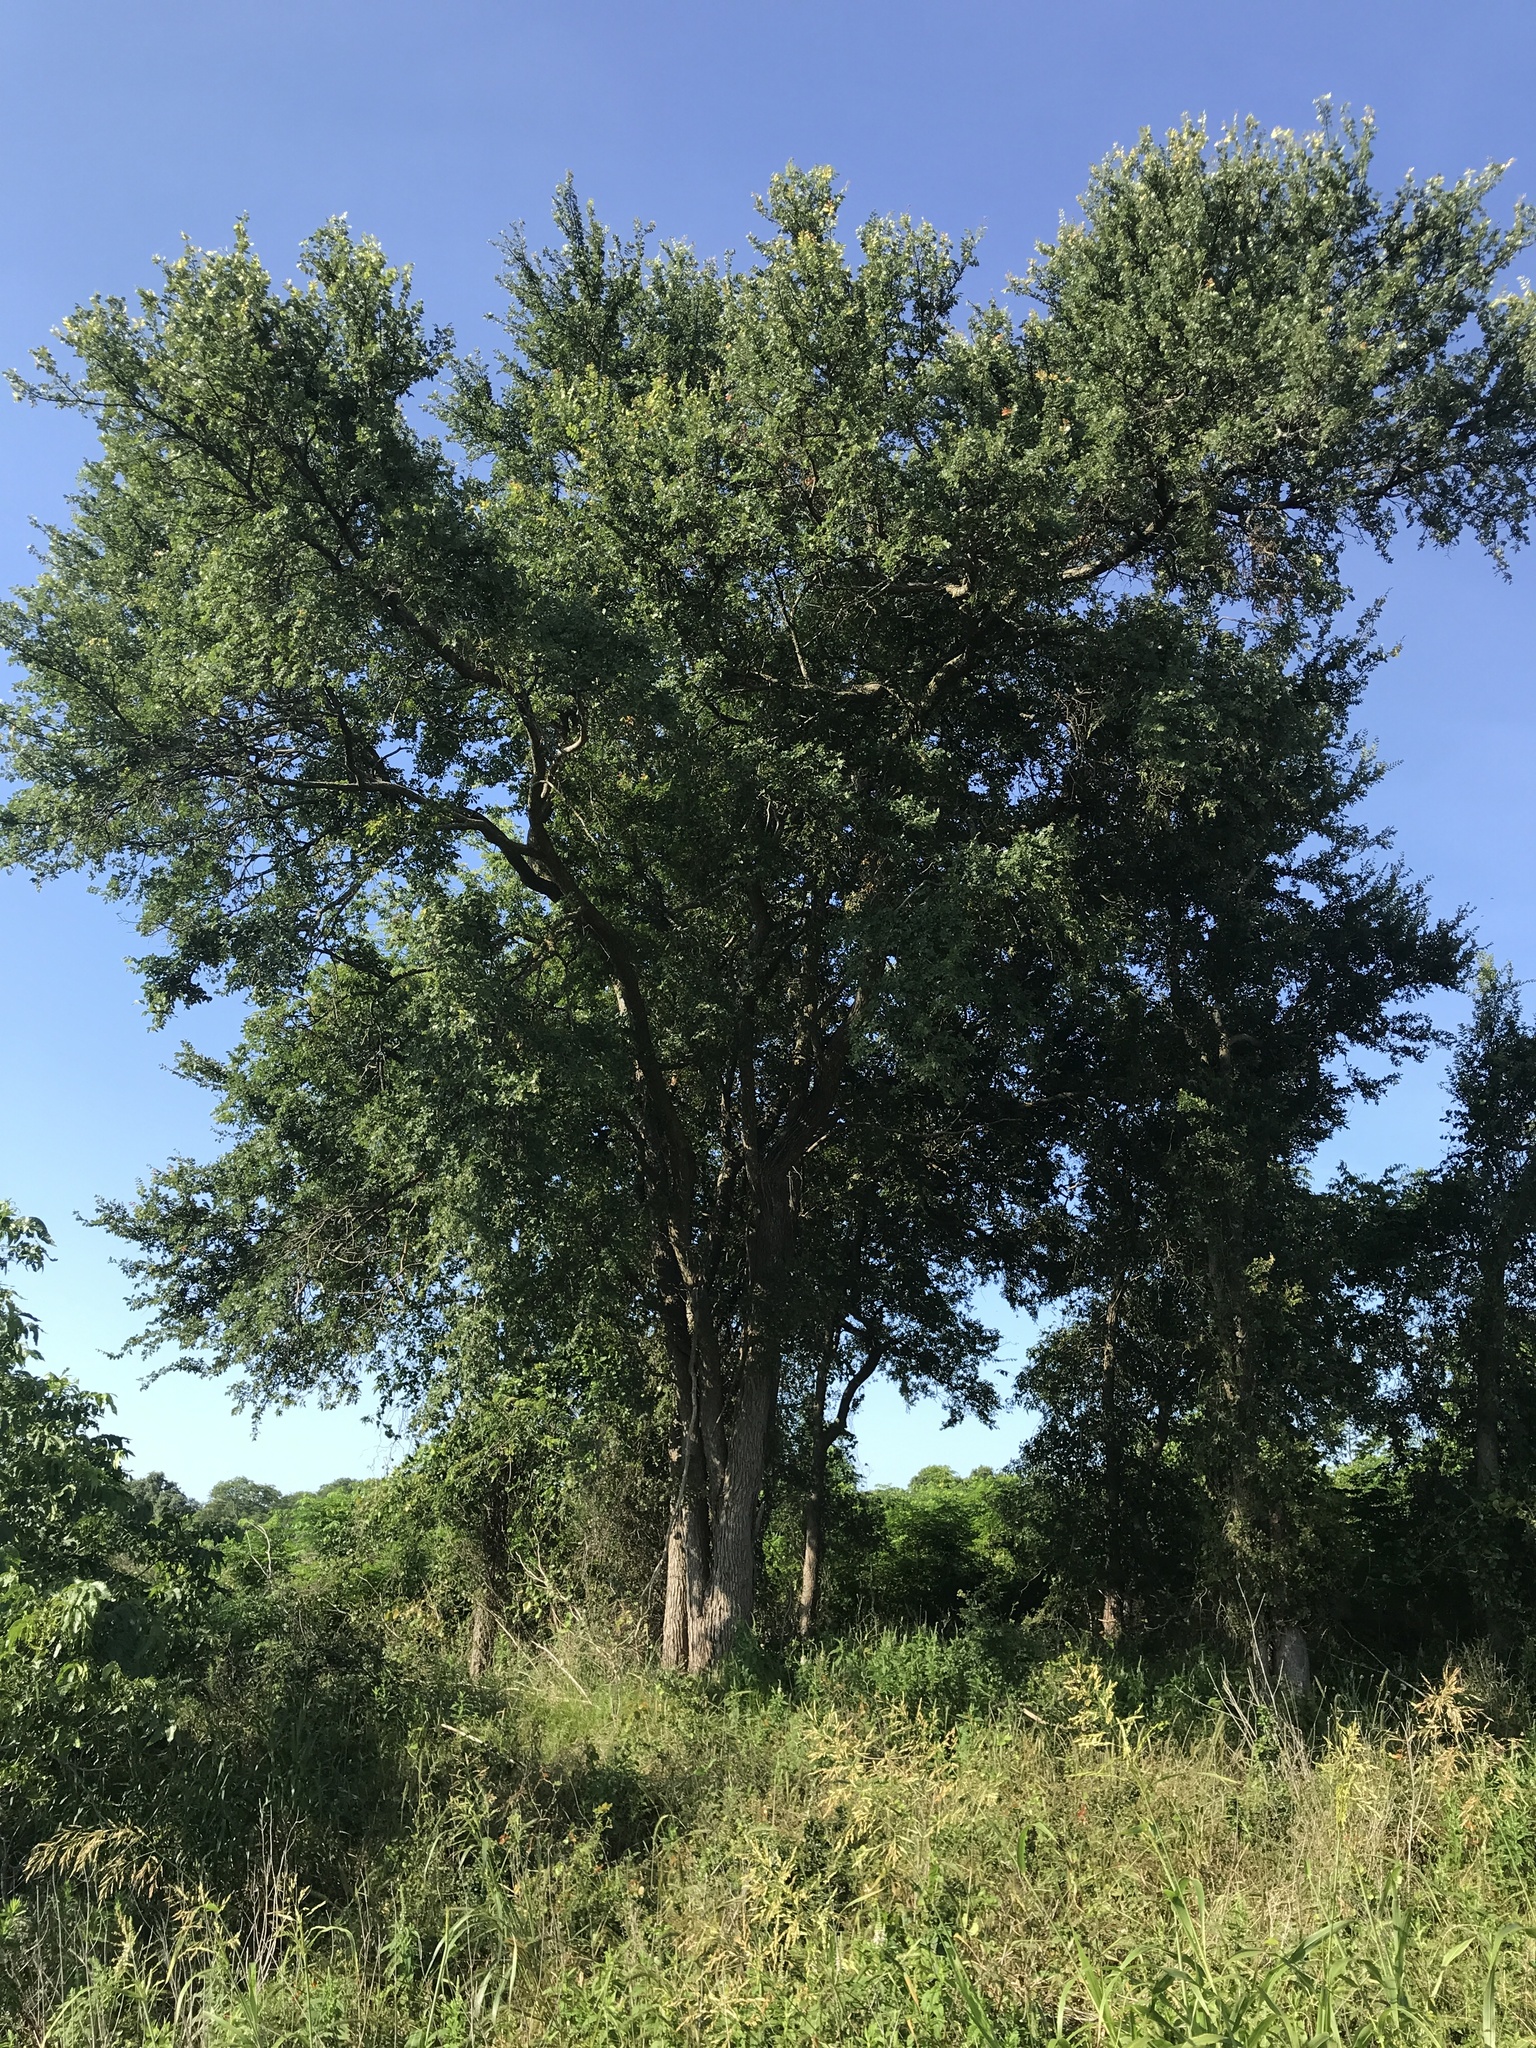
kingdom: Plantae
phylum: Tracheophyta
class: Magnoliopsida
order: Rosales
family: Ulmaceae
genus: Ulmus
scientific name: Ulmus crassifolia
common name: Basket elm
